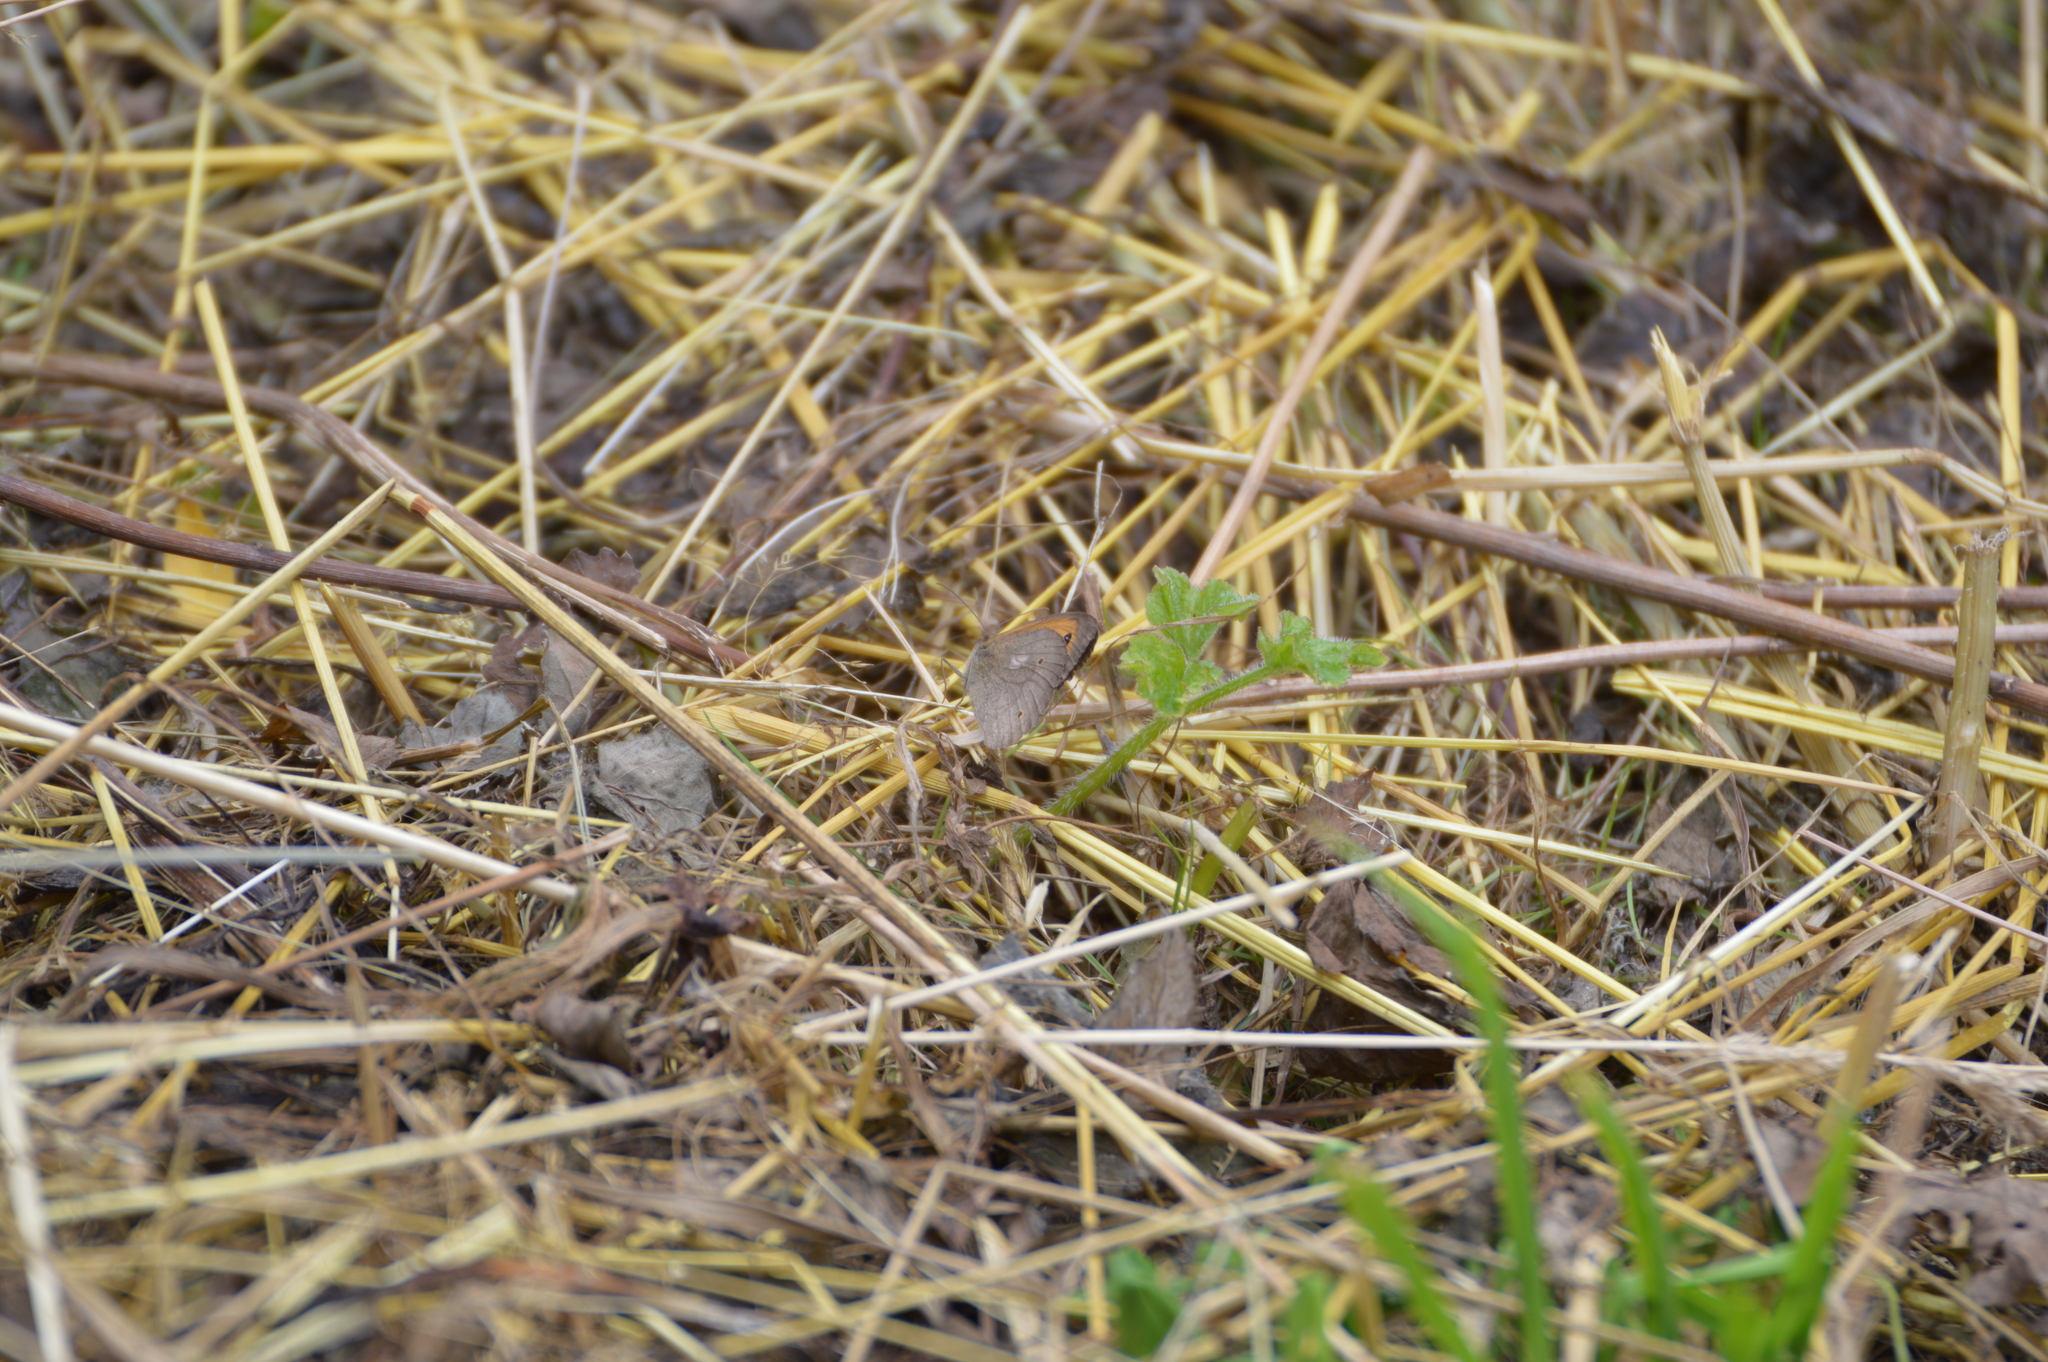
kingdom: Animalia
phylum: Arthropoda
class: Insecta
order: Lepidoptera
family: Nymphalidae
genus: Maniola
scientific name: Maniola jurtina
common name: Meadow brown
